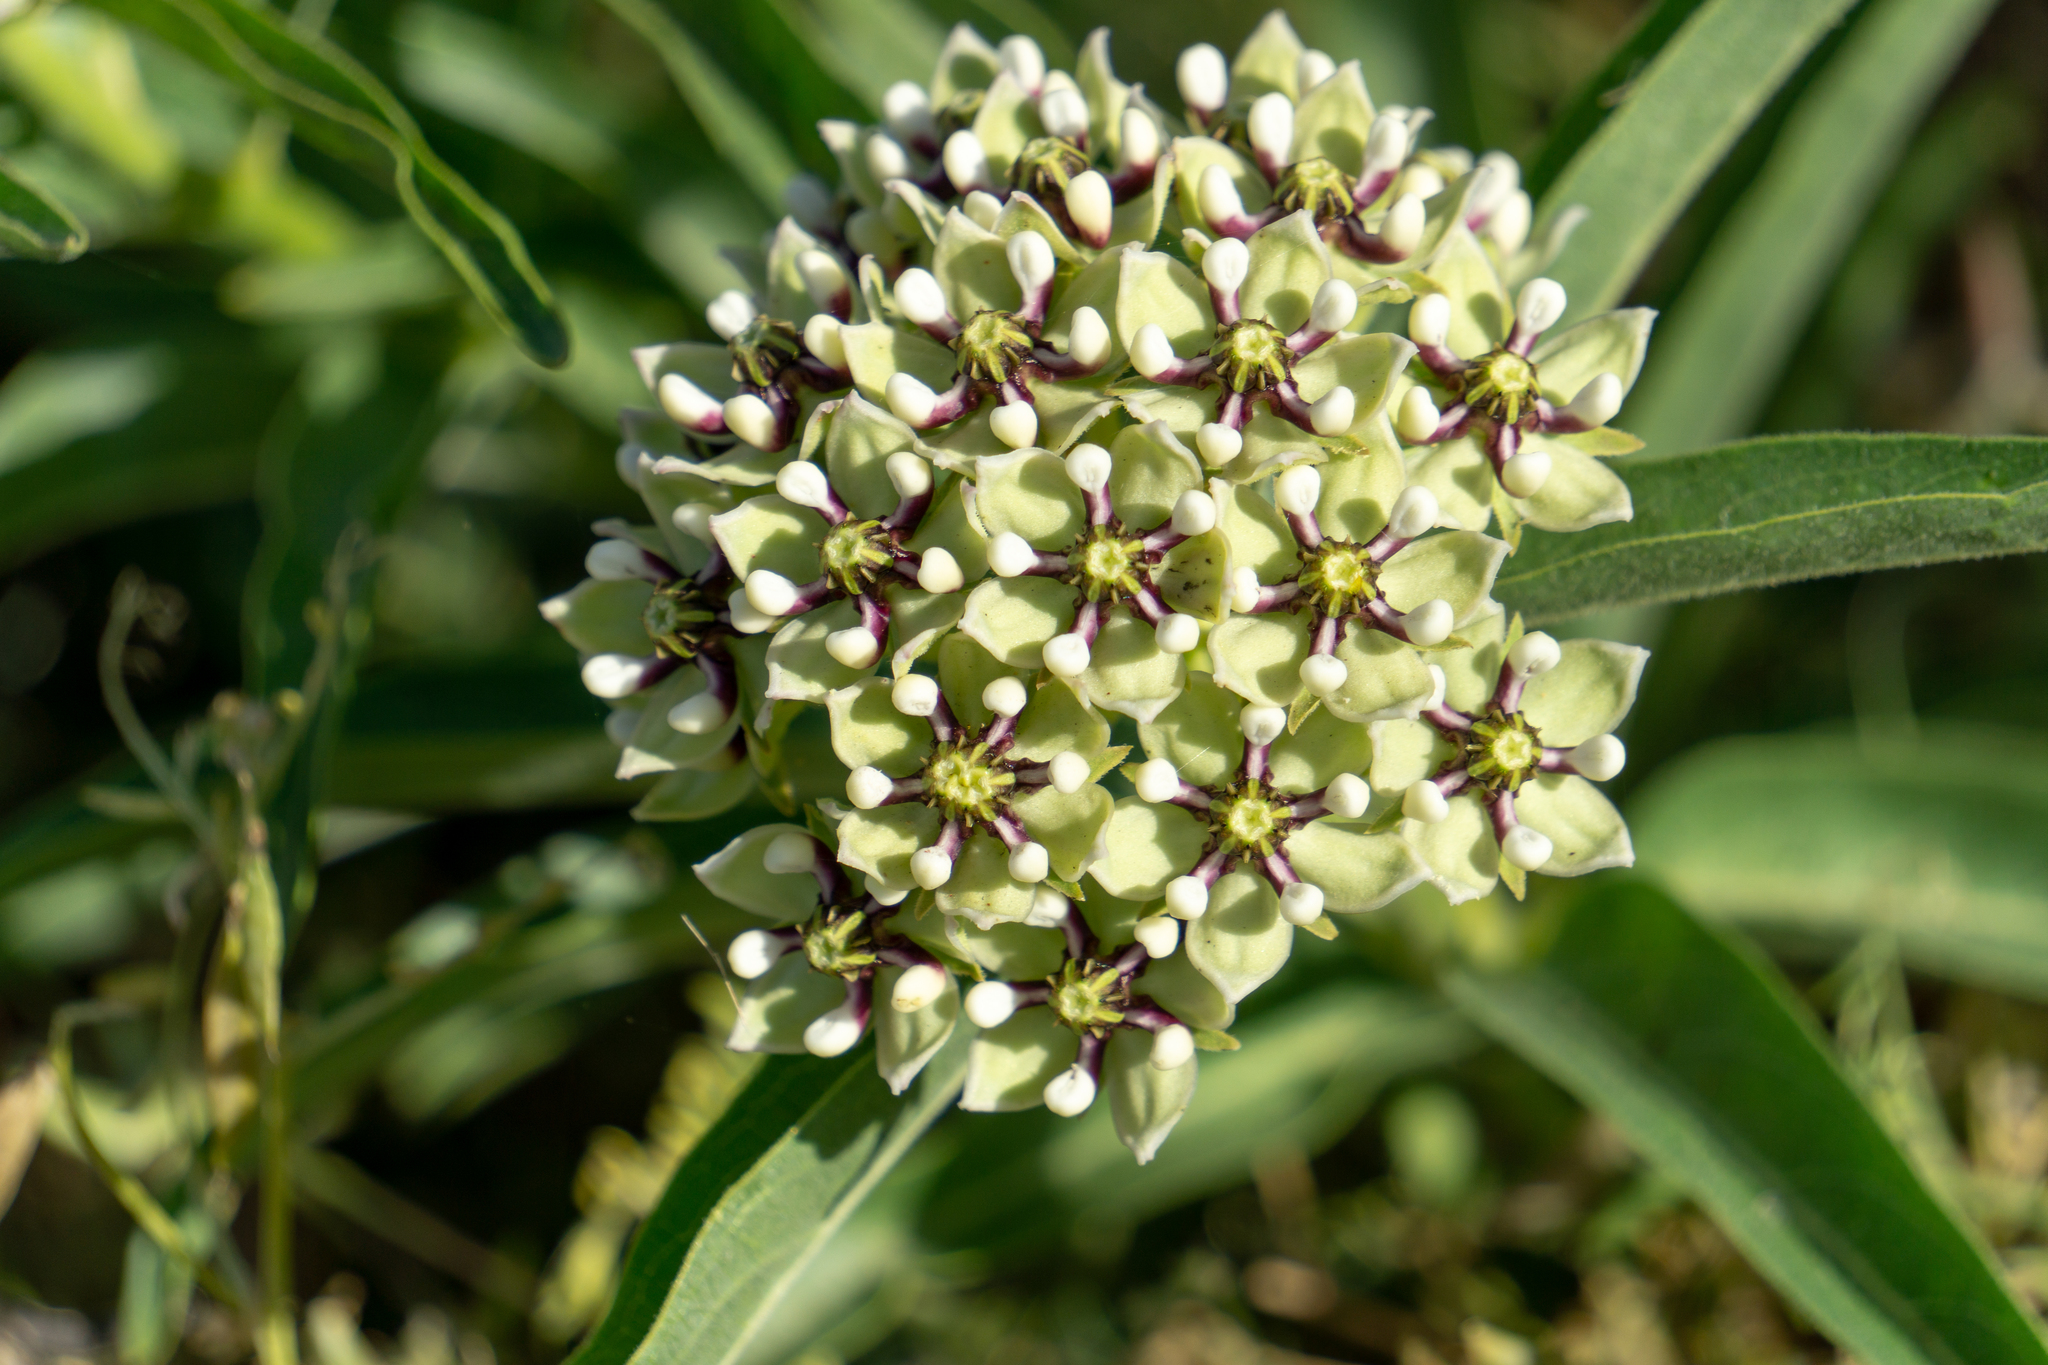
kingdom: Plantae
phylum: Tracheophyta
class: Magnoliopsida
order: Gentianales
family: Apocynaceae
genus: Asclepias
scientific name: Asclepias asperula
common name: Antelope horns
